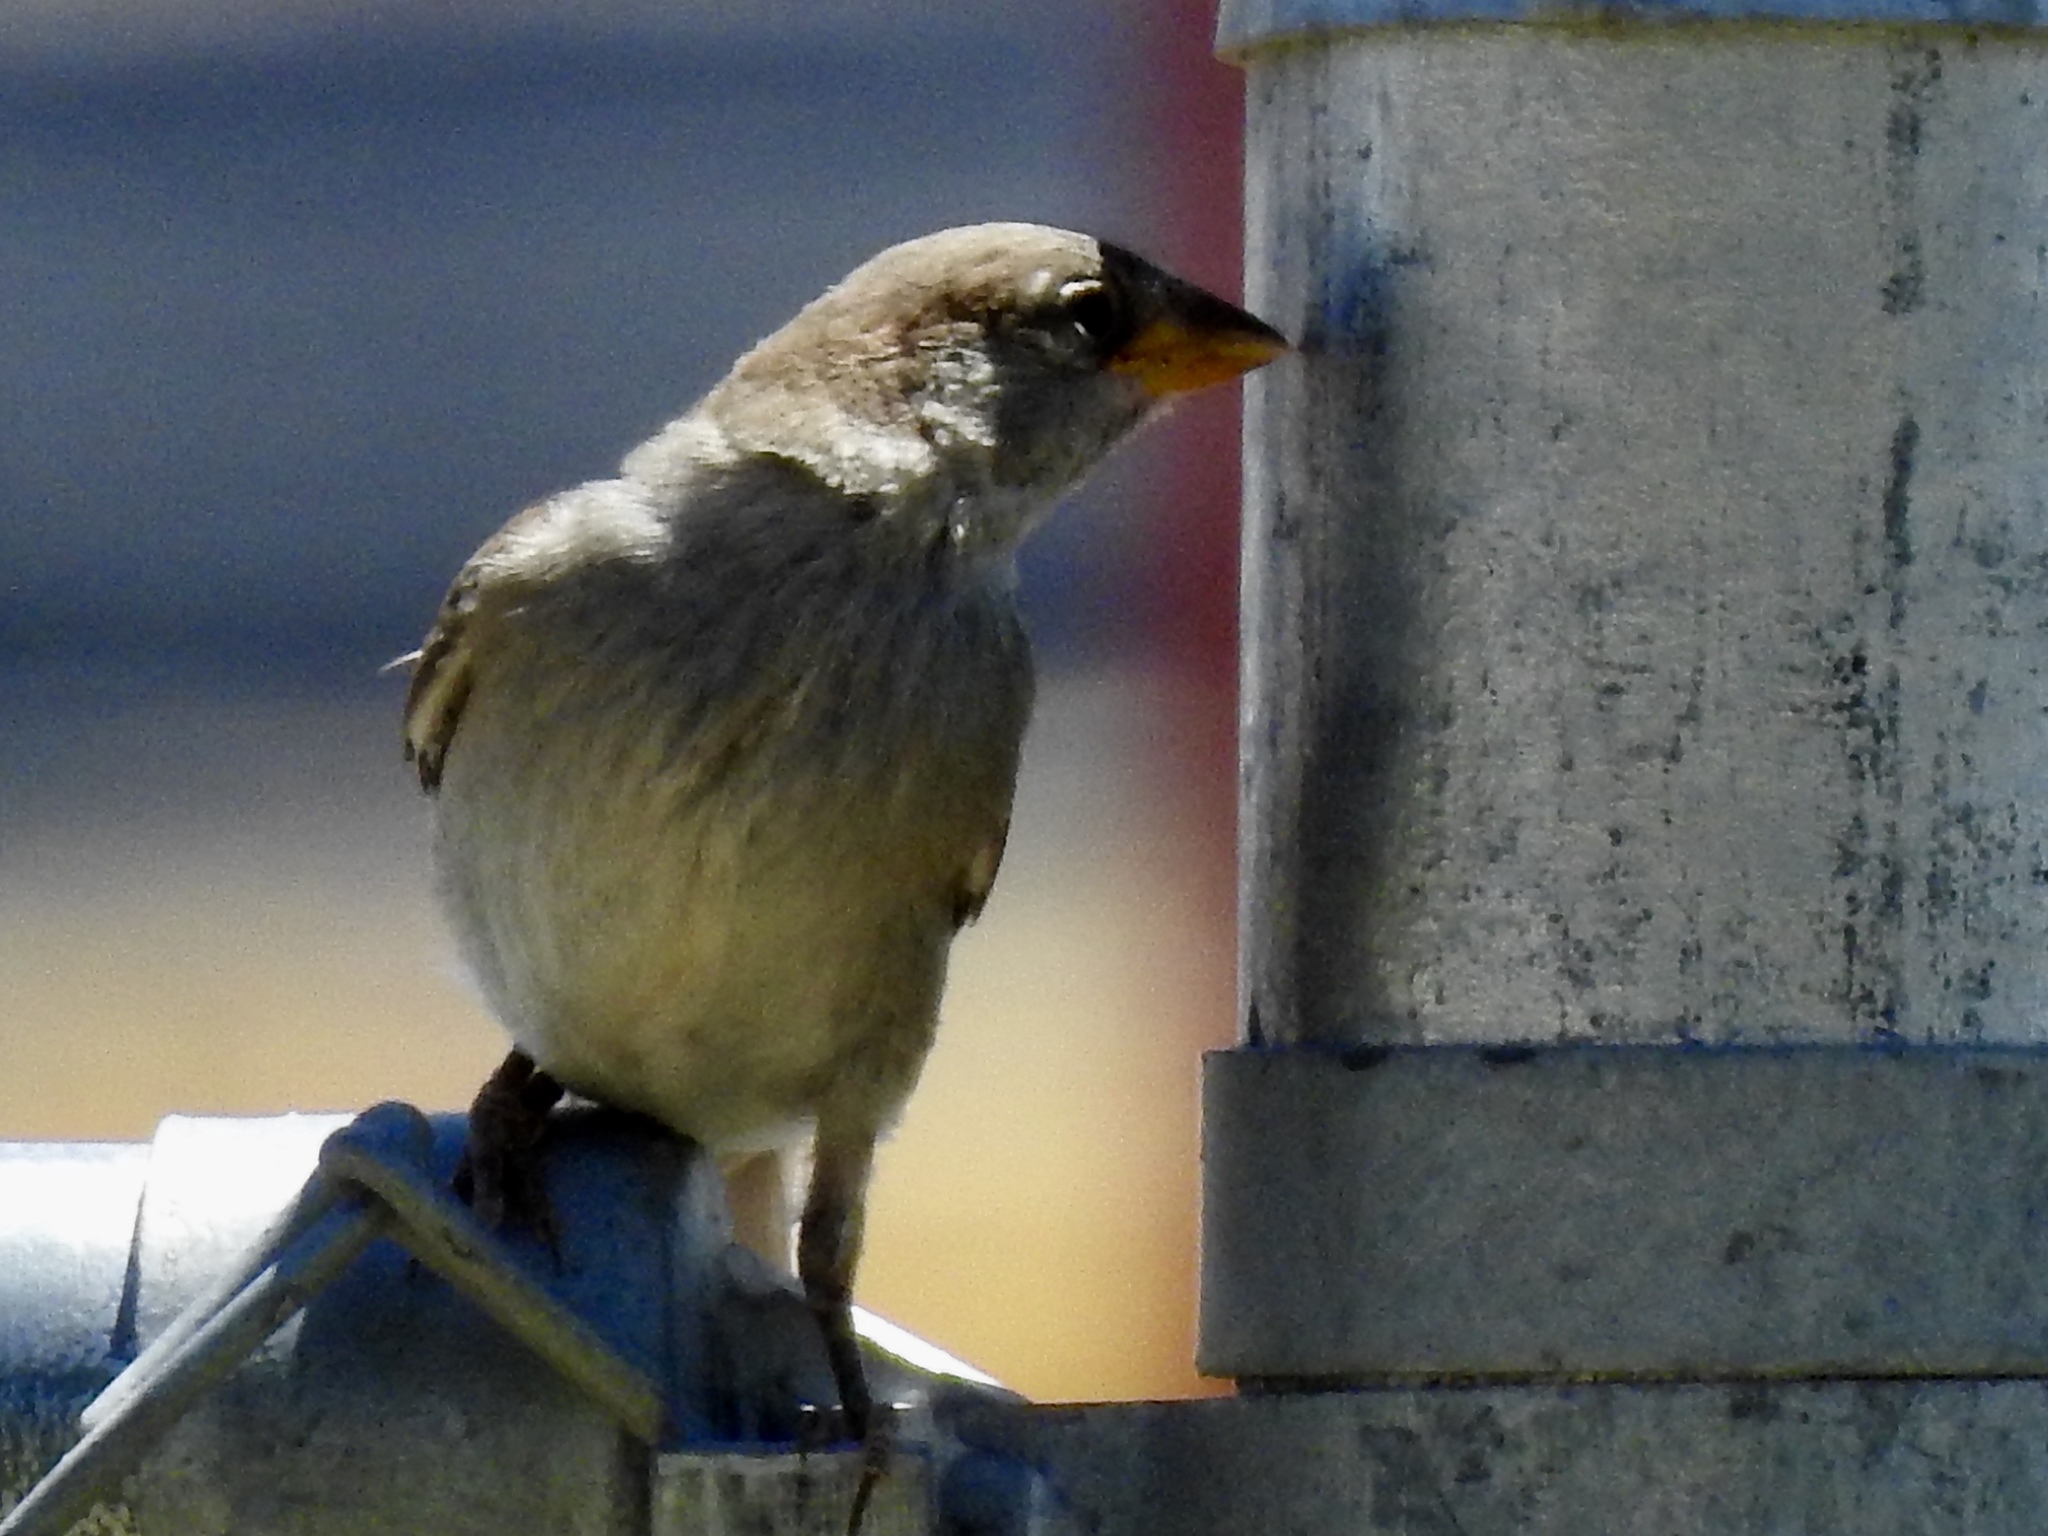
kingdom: Animalia
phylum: Chordata
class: Aves
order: Passeriformes
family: Passeridae
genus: Passer
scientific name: Passer domesticus
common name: House sparrow
